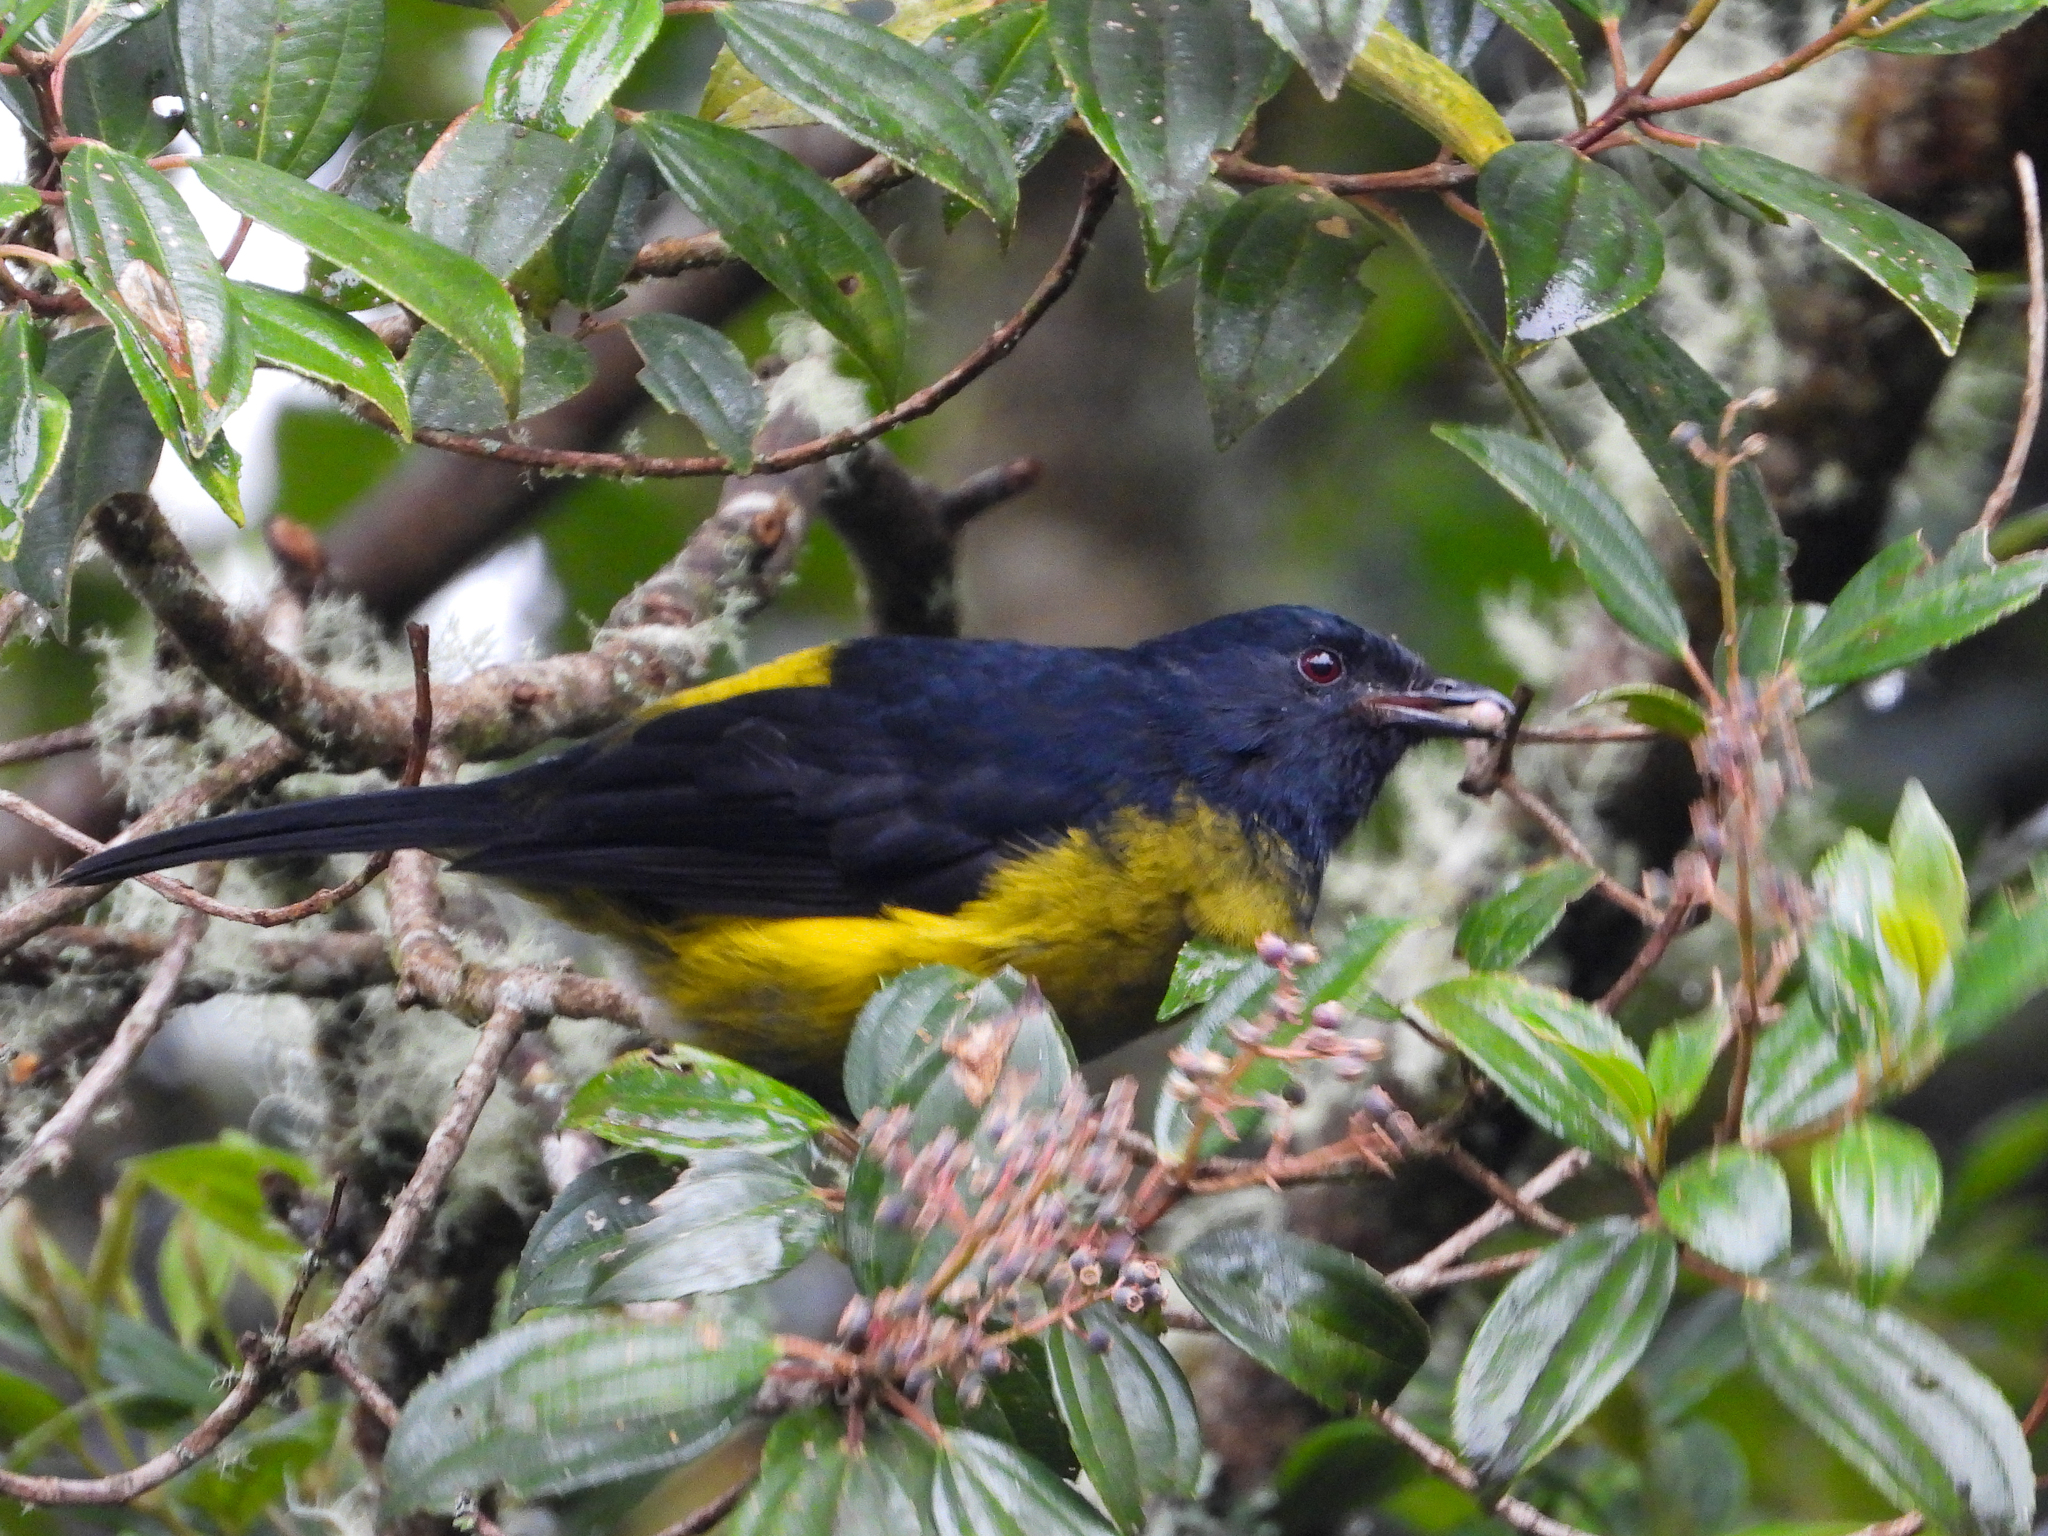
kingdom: Animalia
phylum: Chordata
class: Aves
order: Passeriformes
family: Ptilogonatidae
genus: Phainoptila
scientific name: Phainoptila melanoxantha
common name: Black-and-yellow phainoptila
